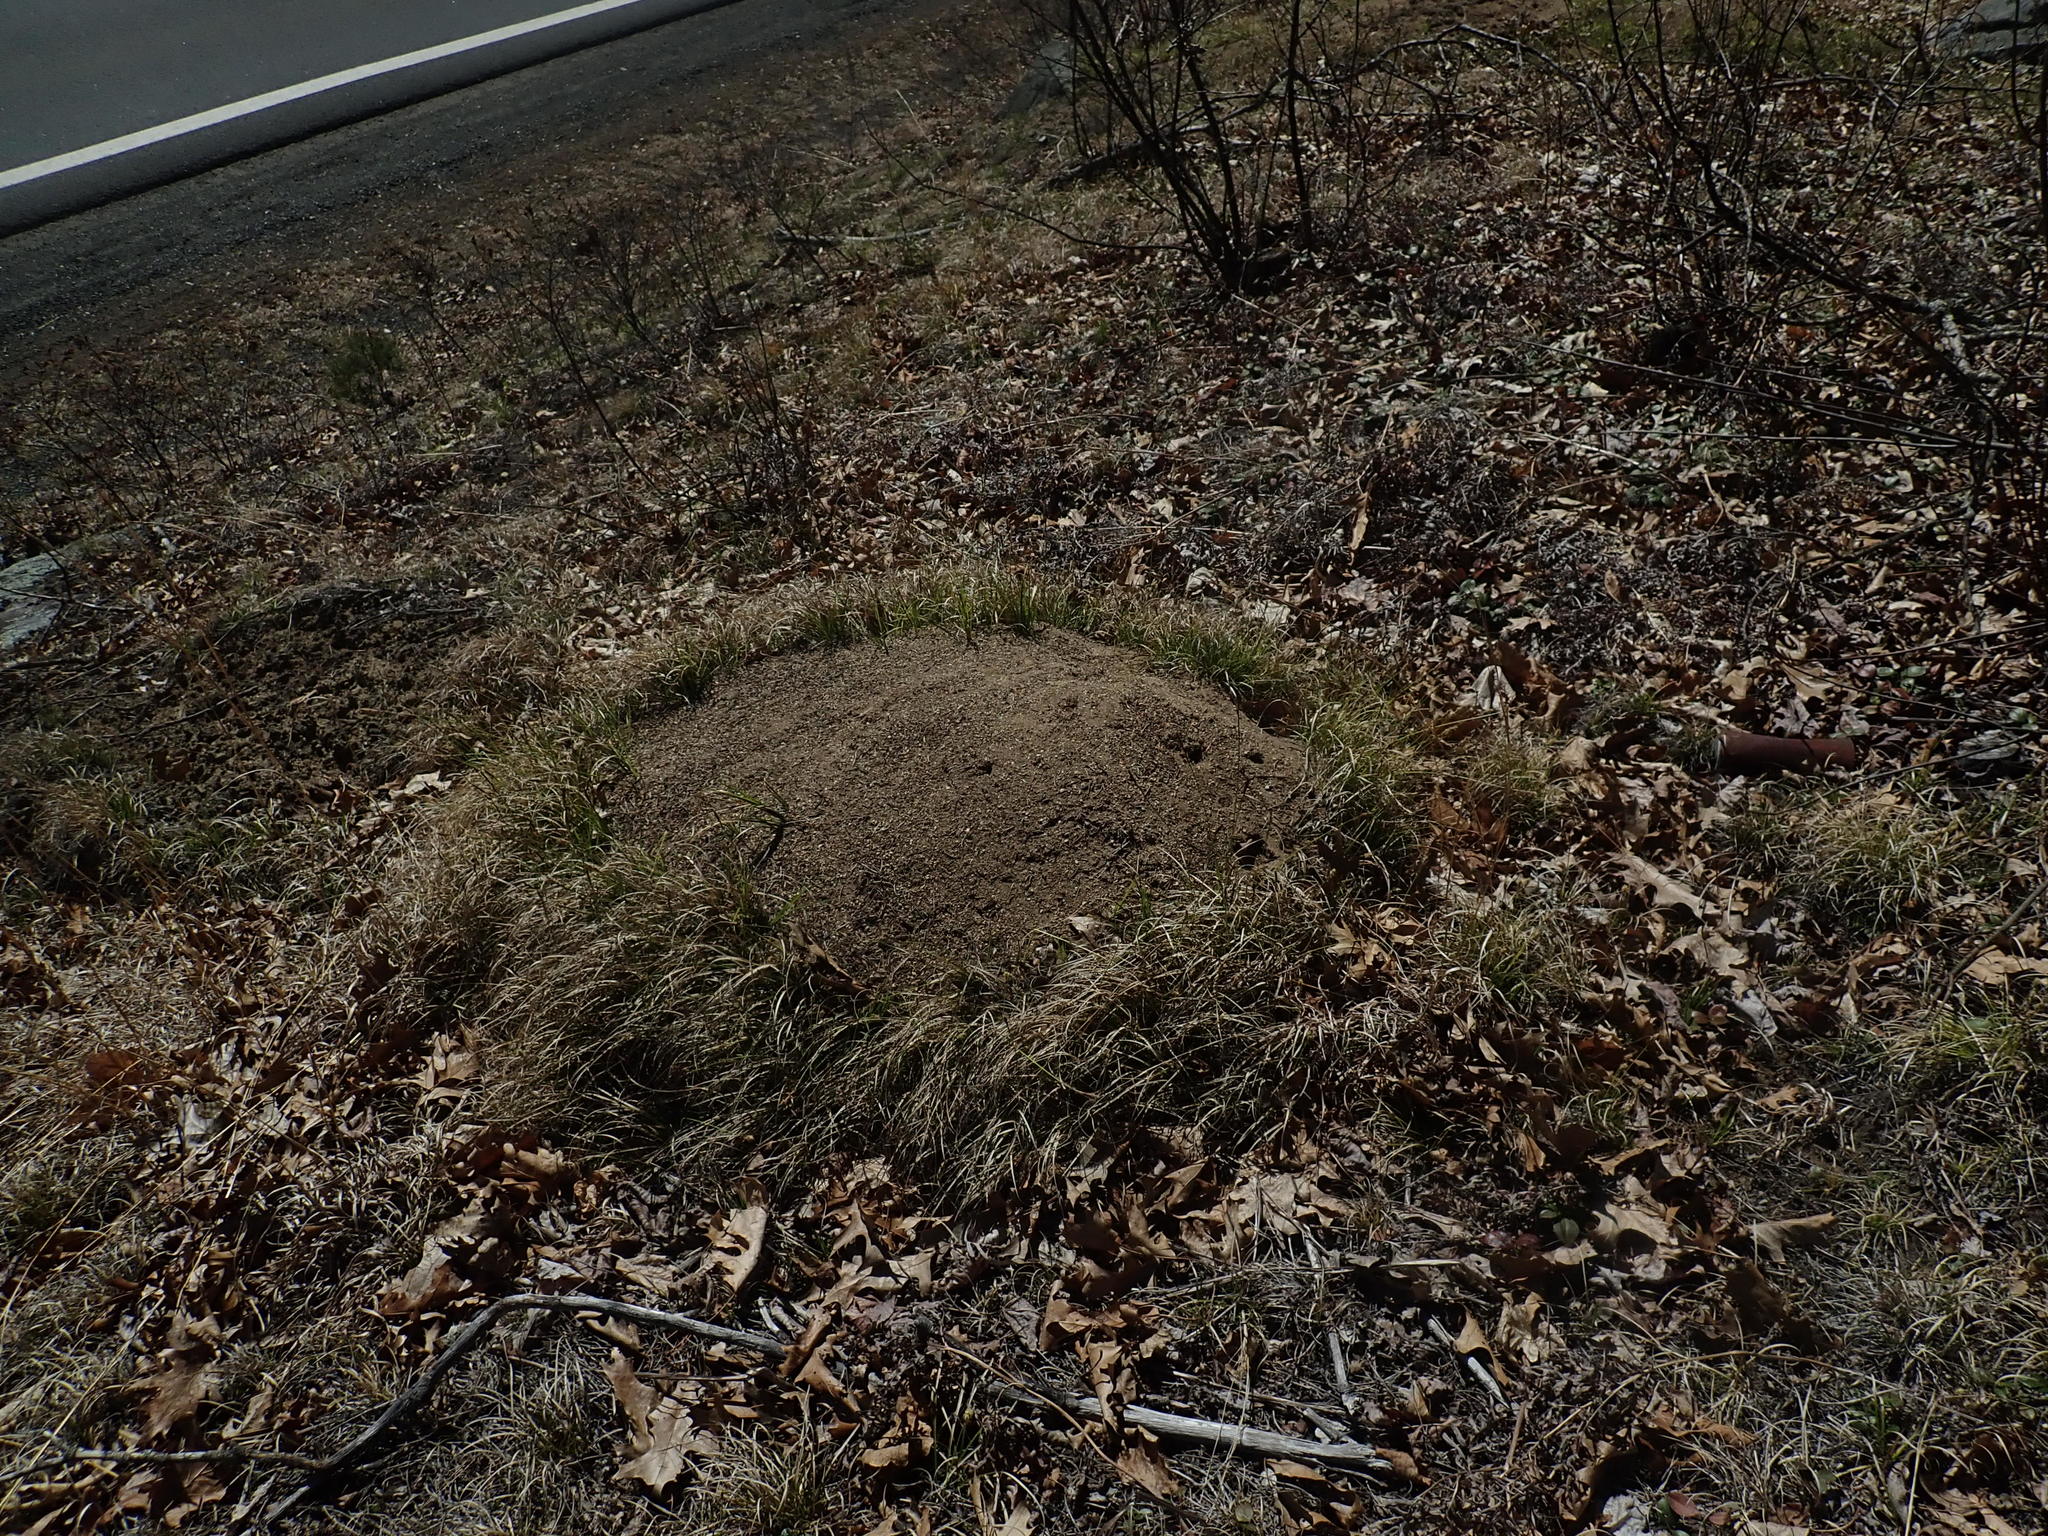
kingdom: Animalia
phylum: Arthropoda
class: Insecta
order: Hymenoptera
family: Formicidae
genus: Formica
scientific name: Formica exsectoides
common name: Allegheny mound ant
